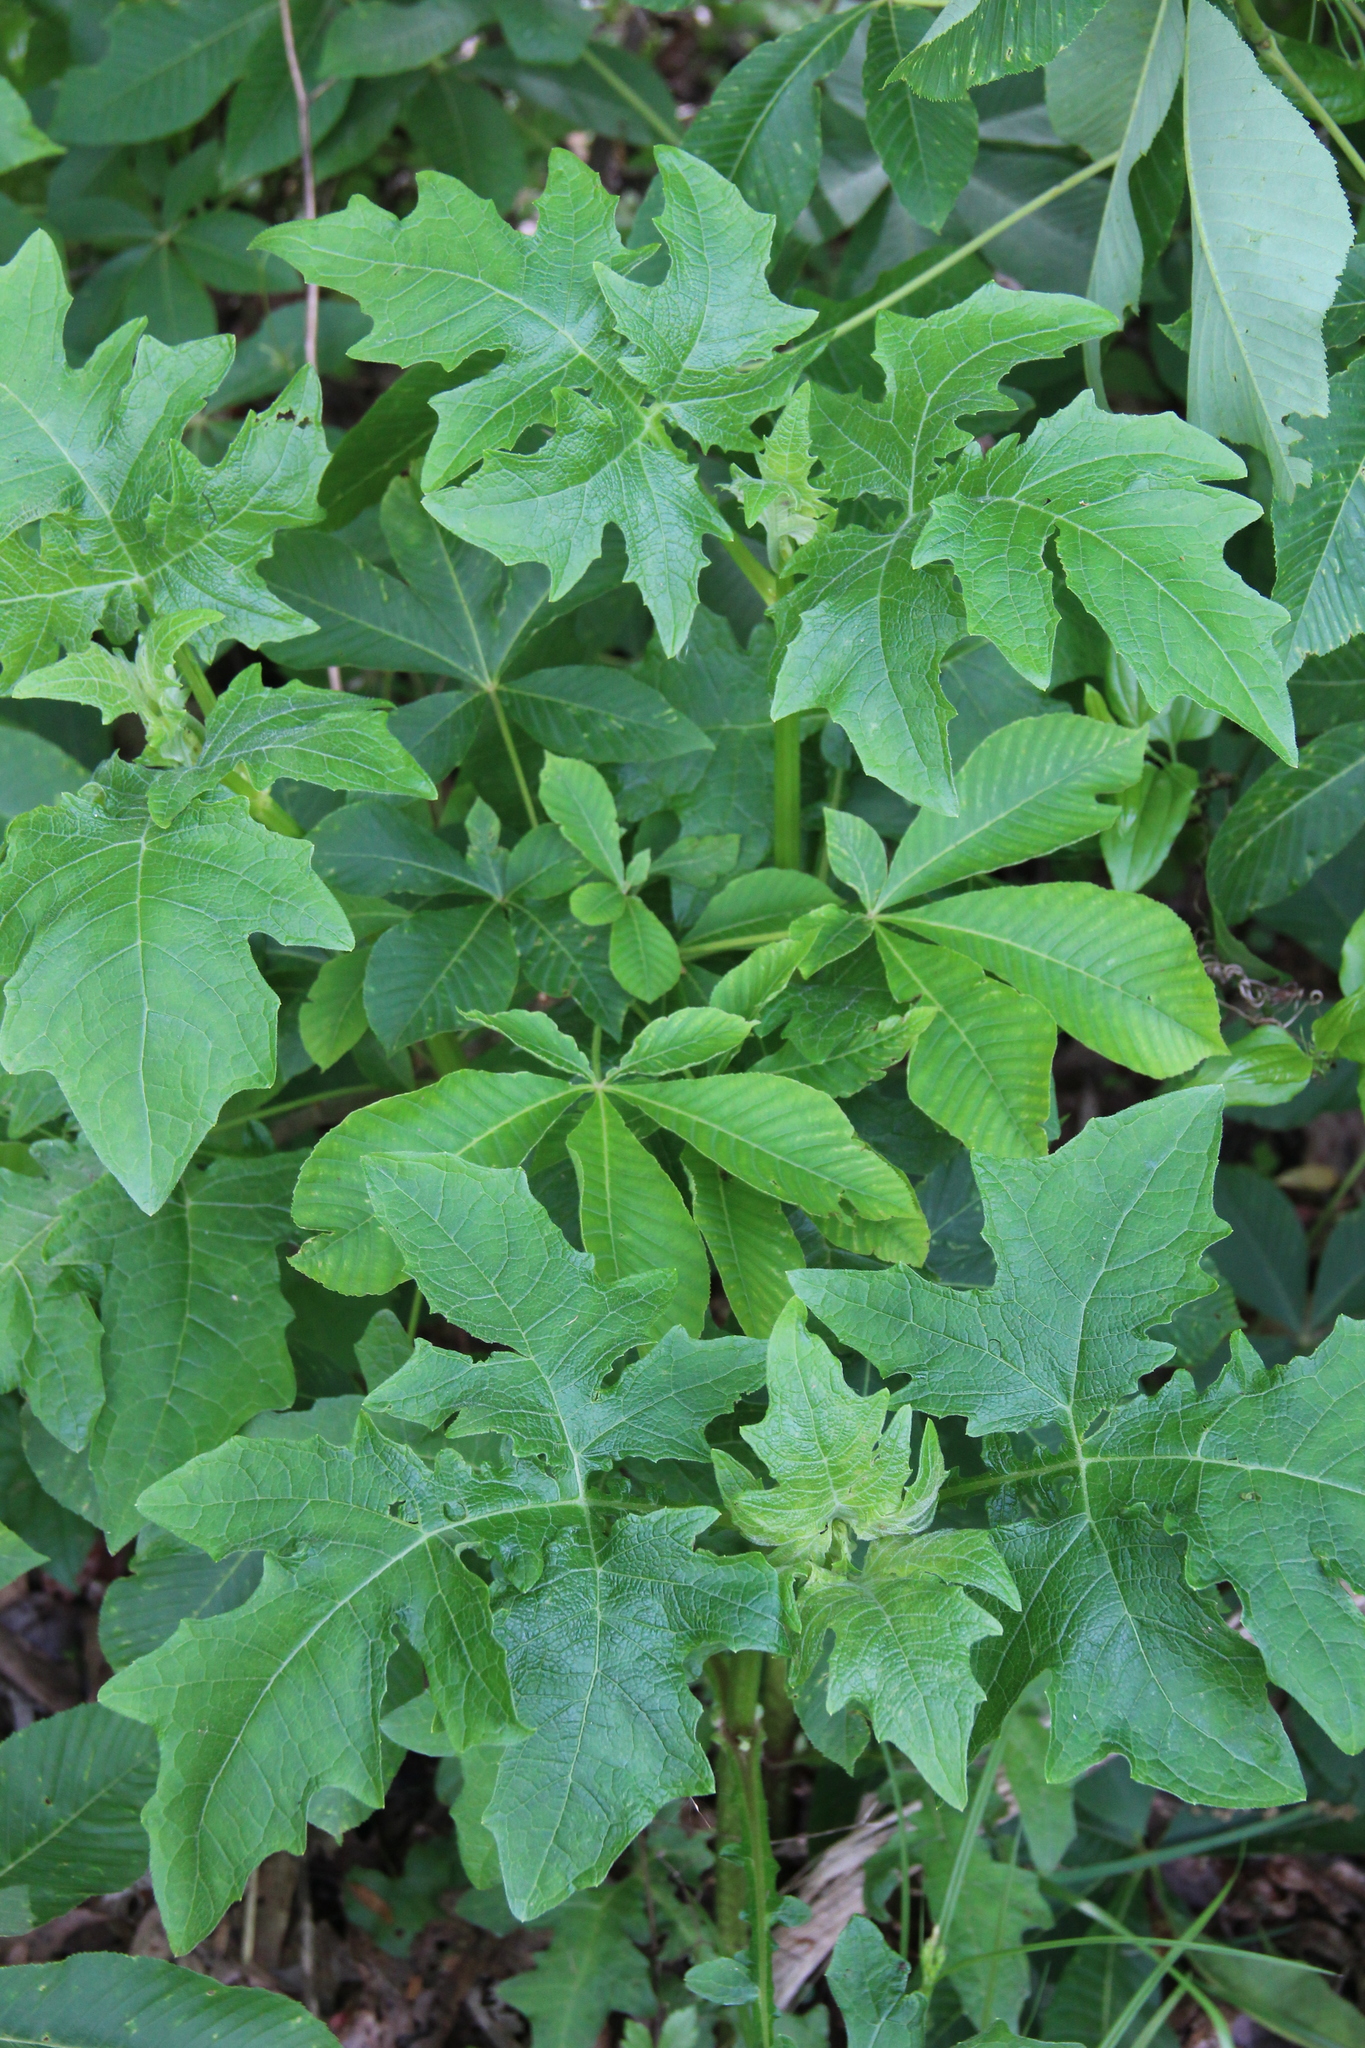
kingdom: Plantae
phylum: Tracheophyta
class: Magnoliopsida
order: Asterales
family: Asteraceae
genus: Smallanthus
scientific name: Smallanthus uvedalia
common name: Bear's-foot
